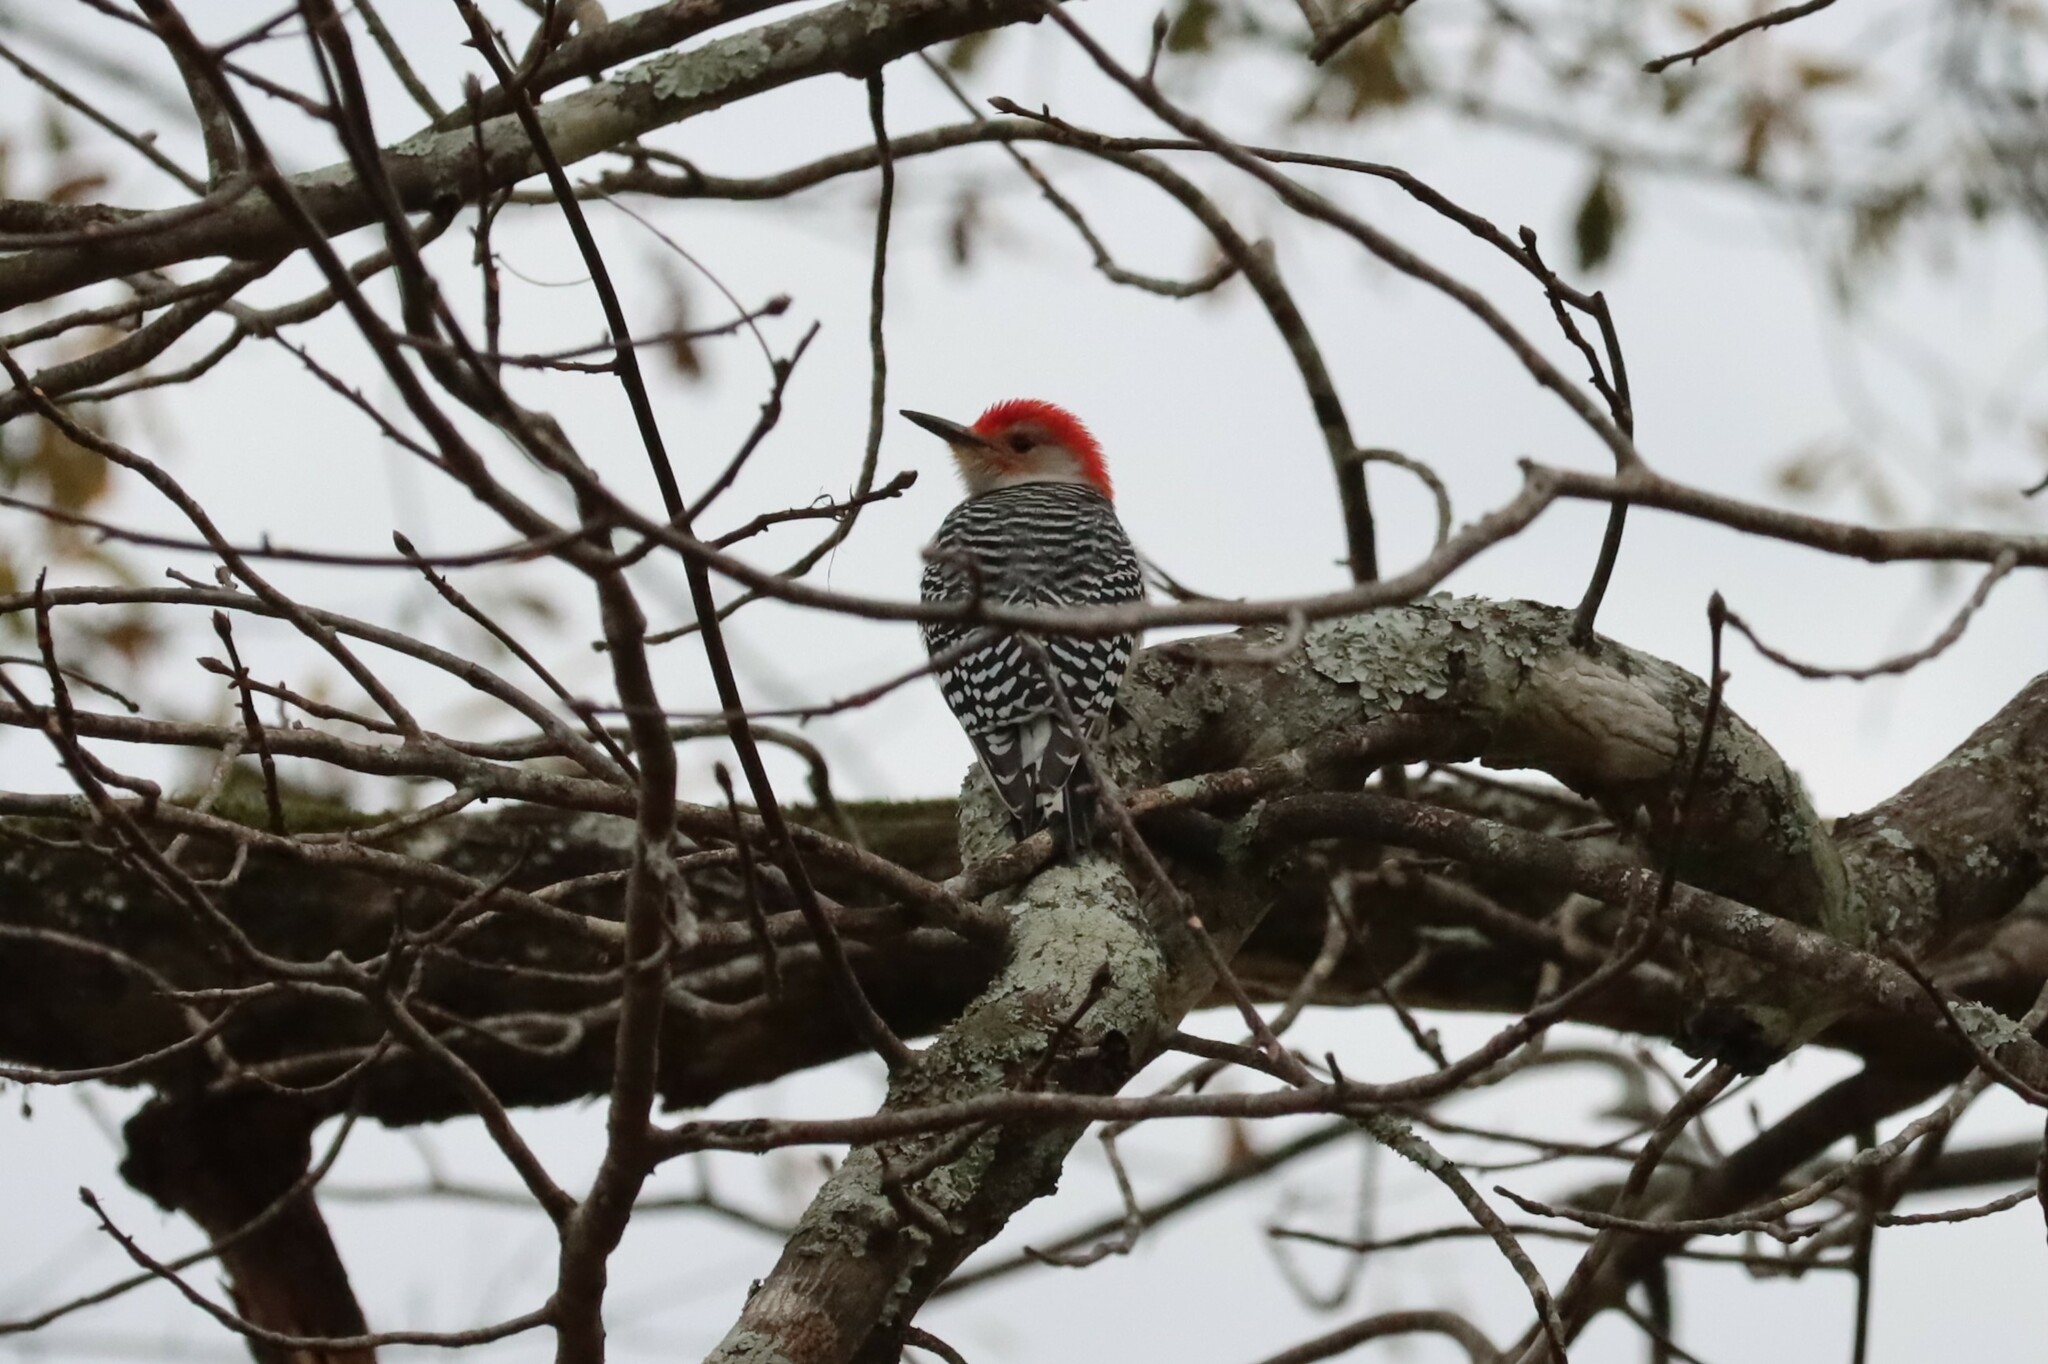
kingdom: Animalia
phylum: Chordata
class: Aves
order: Piciformes
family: Picidae
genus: Melanerpes
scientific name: Melanerpes carolinus
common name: Red-bellied woodpecker
